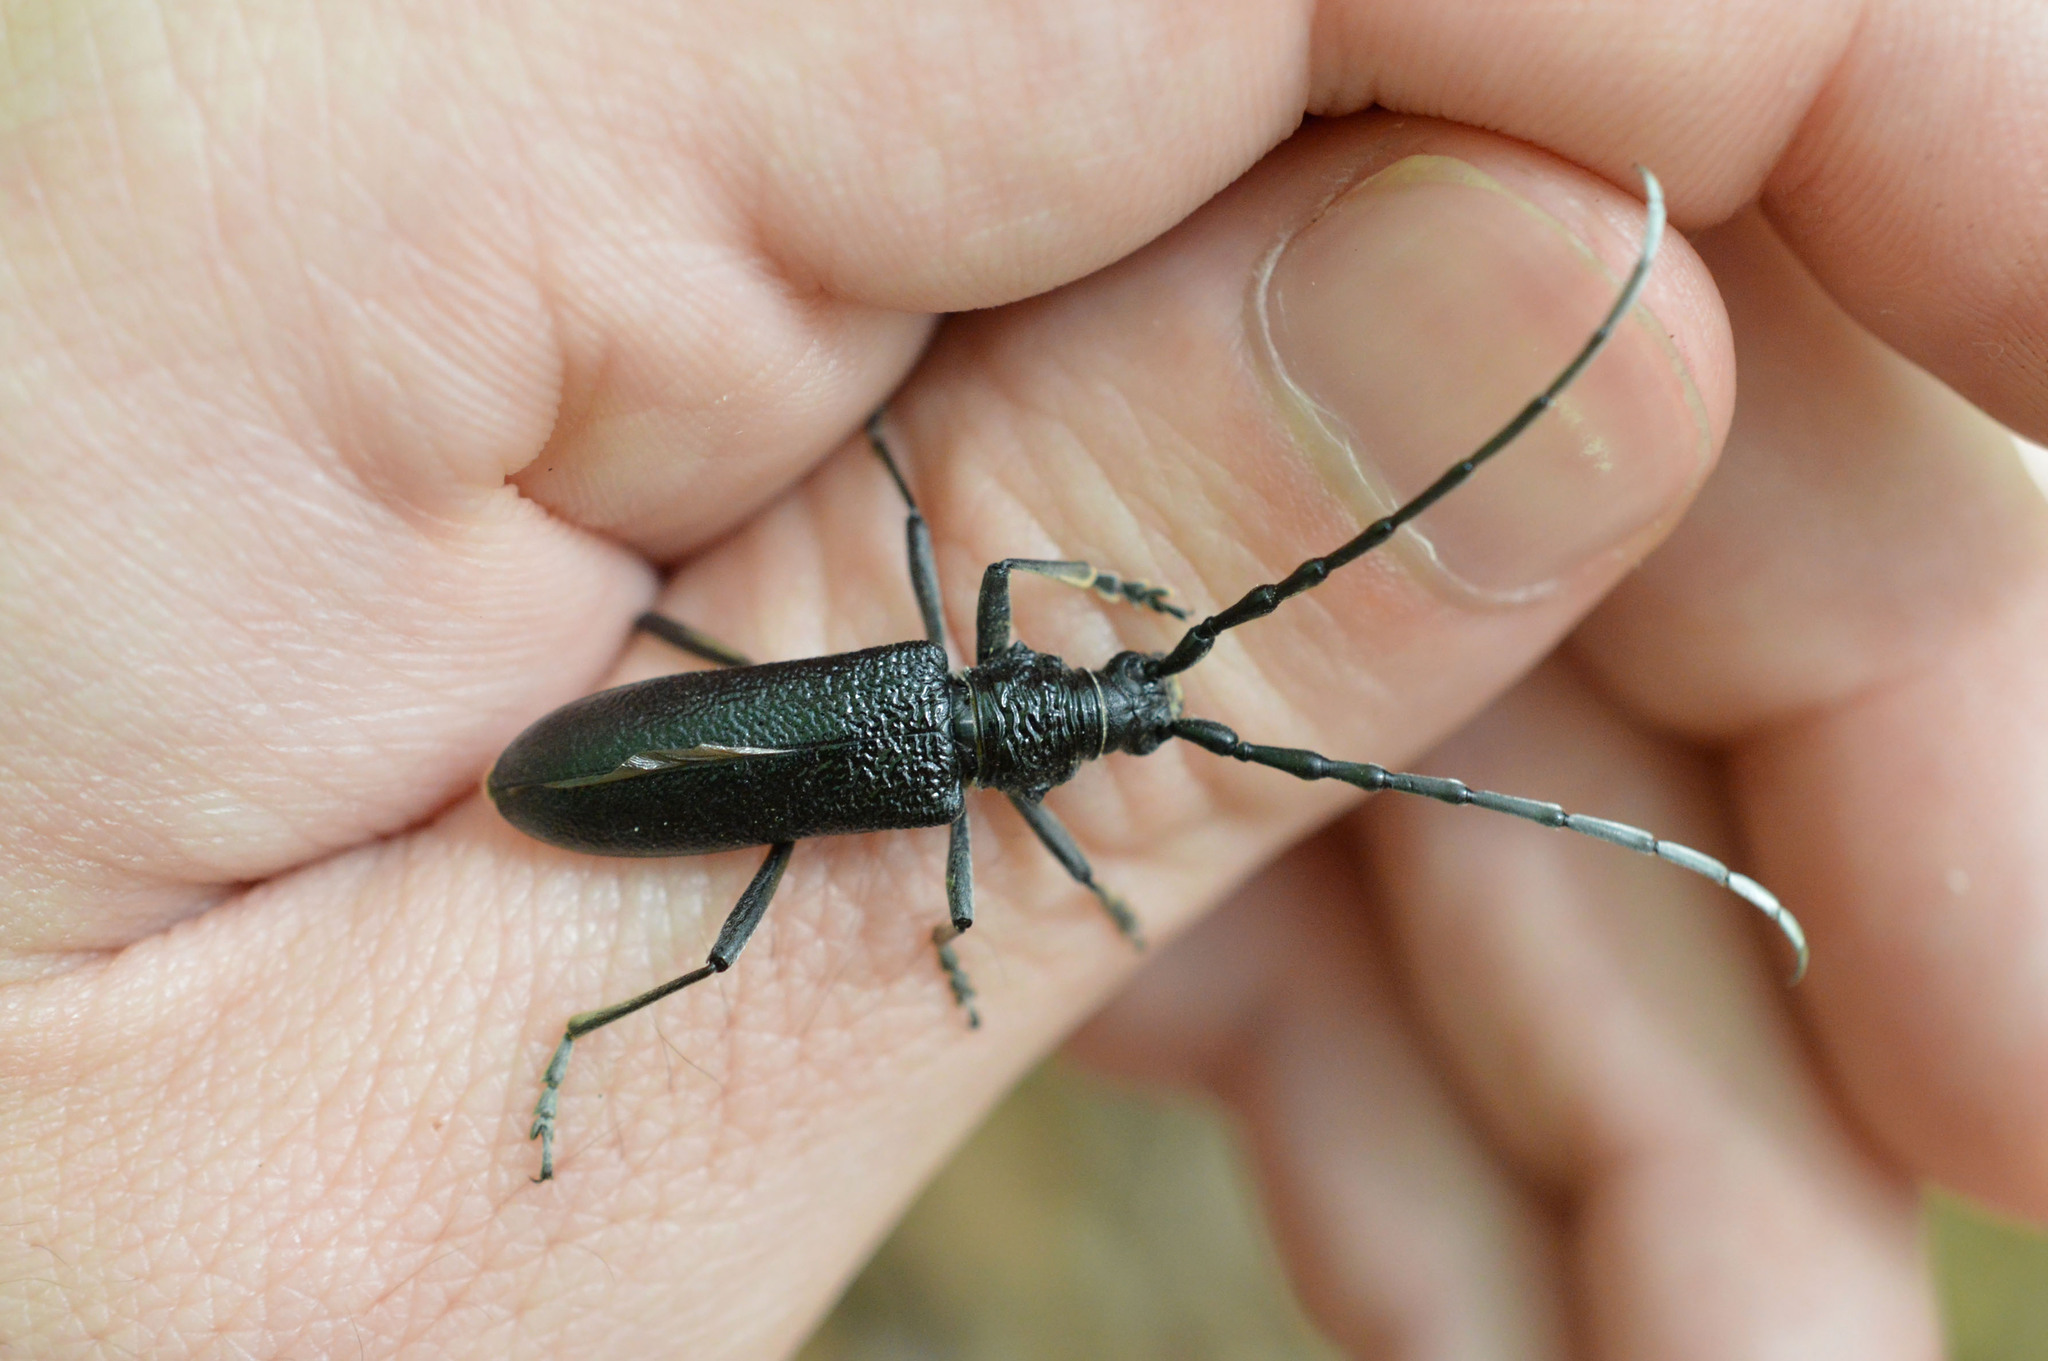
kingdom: Animalia
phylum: Arthropoda
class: Insecta
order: Coleoptera
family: Cerambycidae
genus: Cerambyx
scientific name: Cerambyx scopolii
